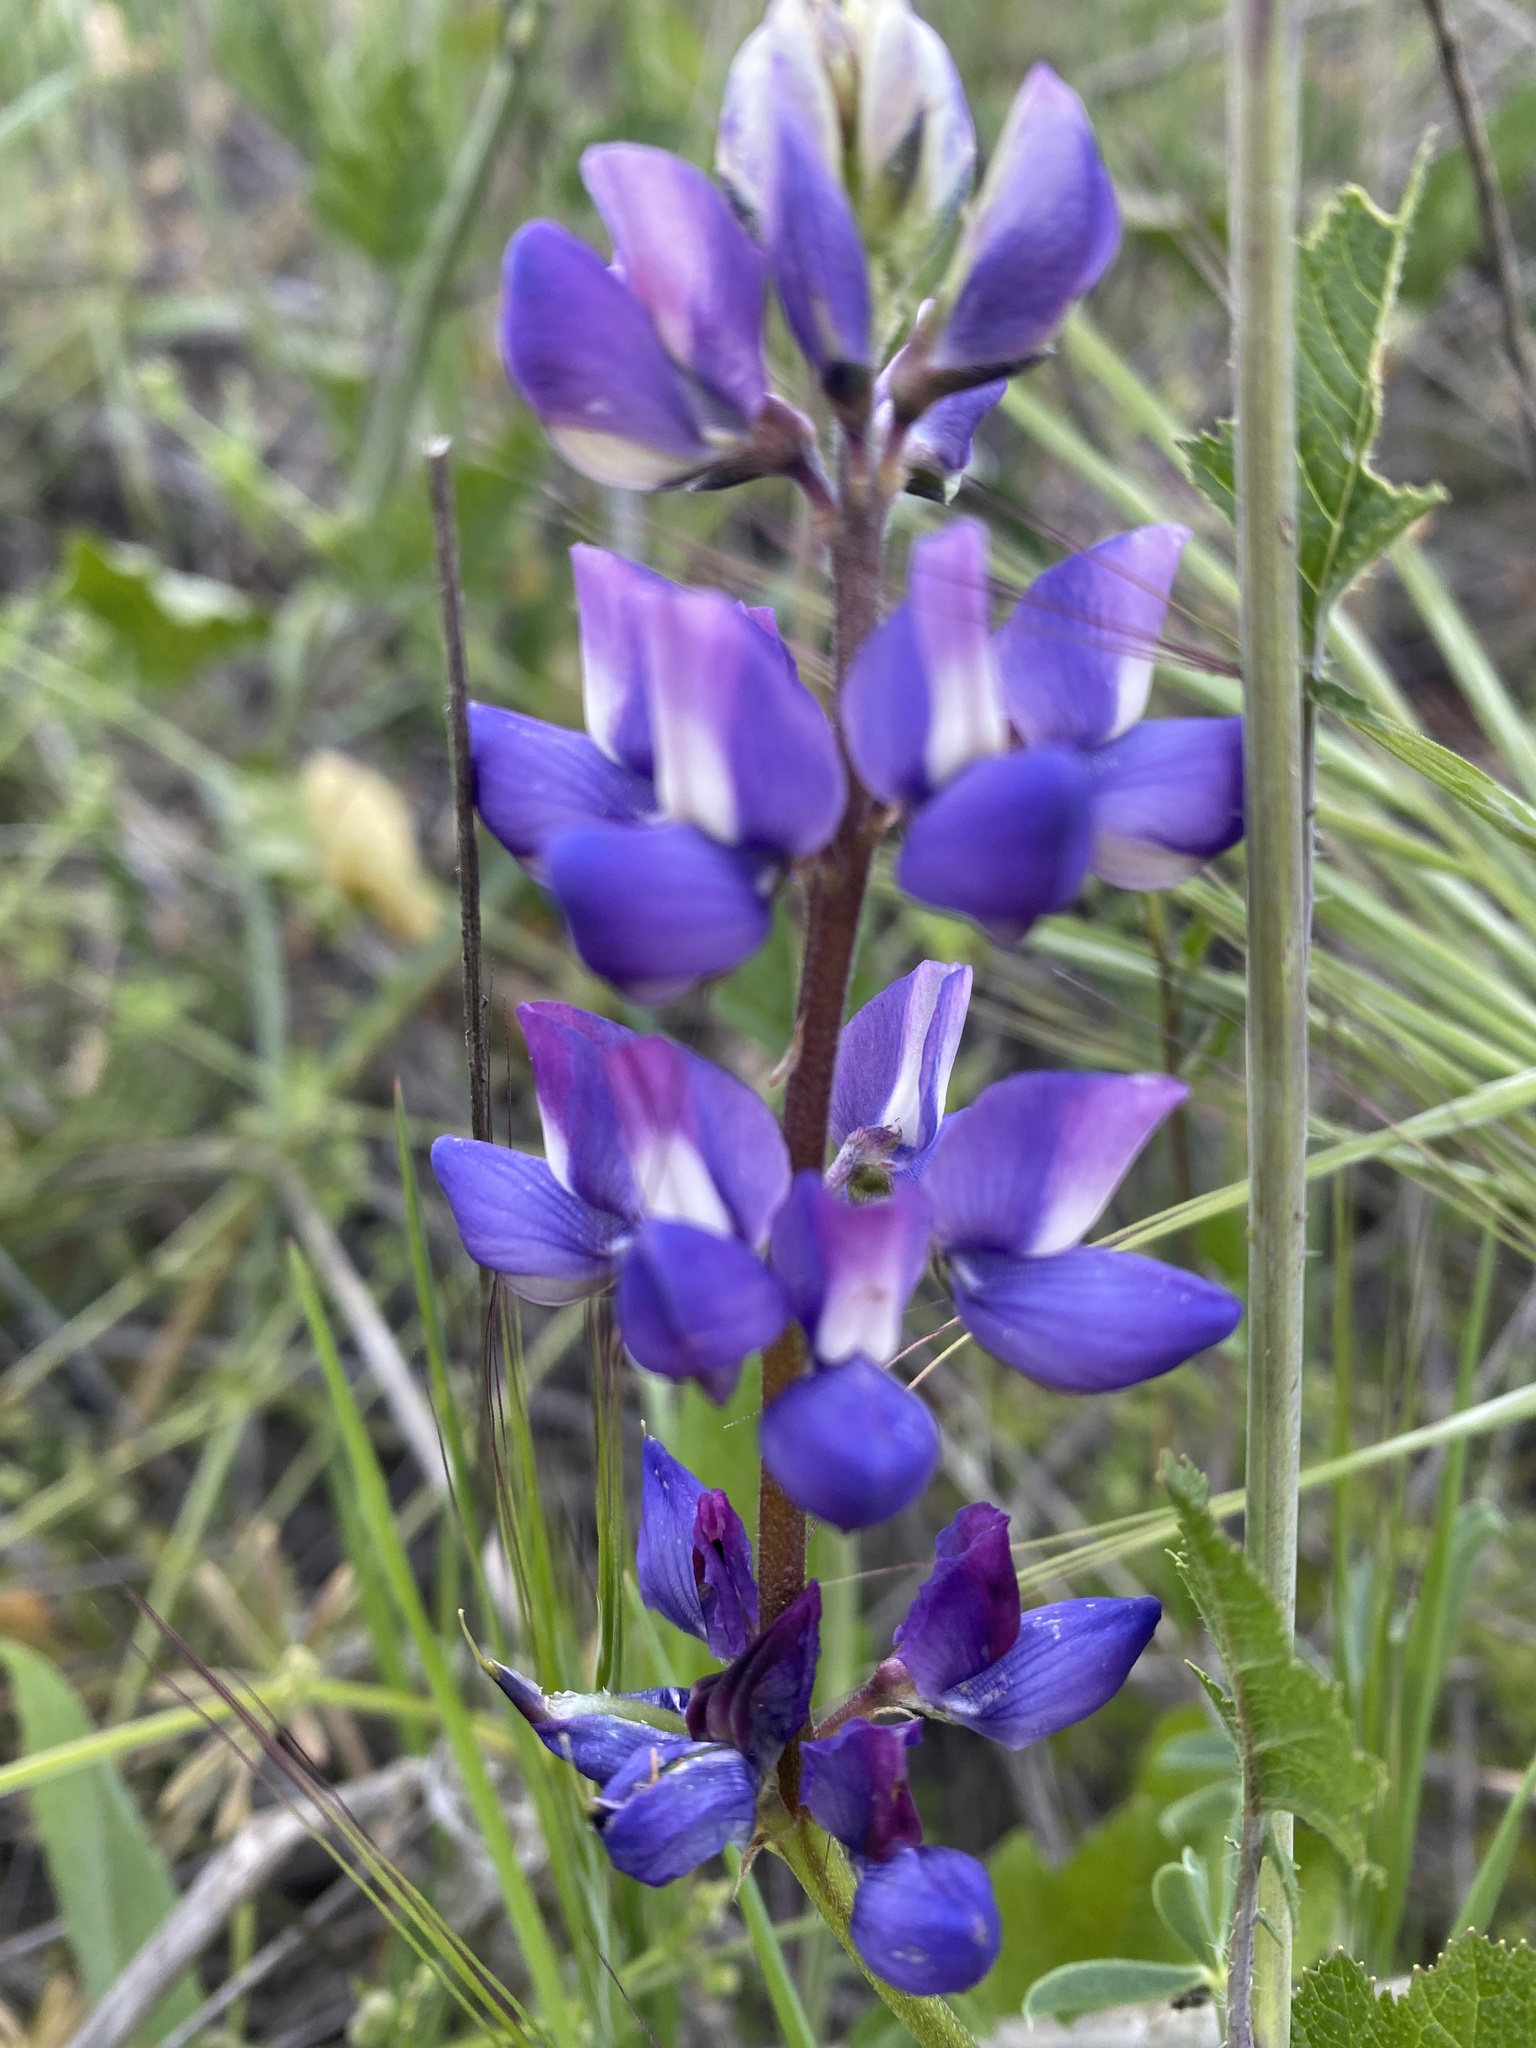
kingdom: Plantae
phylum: Tracheophyta
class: Magnoliopsida
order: Fabales
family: Fabaceae
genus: Lupinus
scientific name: Lupinus succulentus
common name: Arroyo lupine
